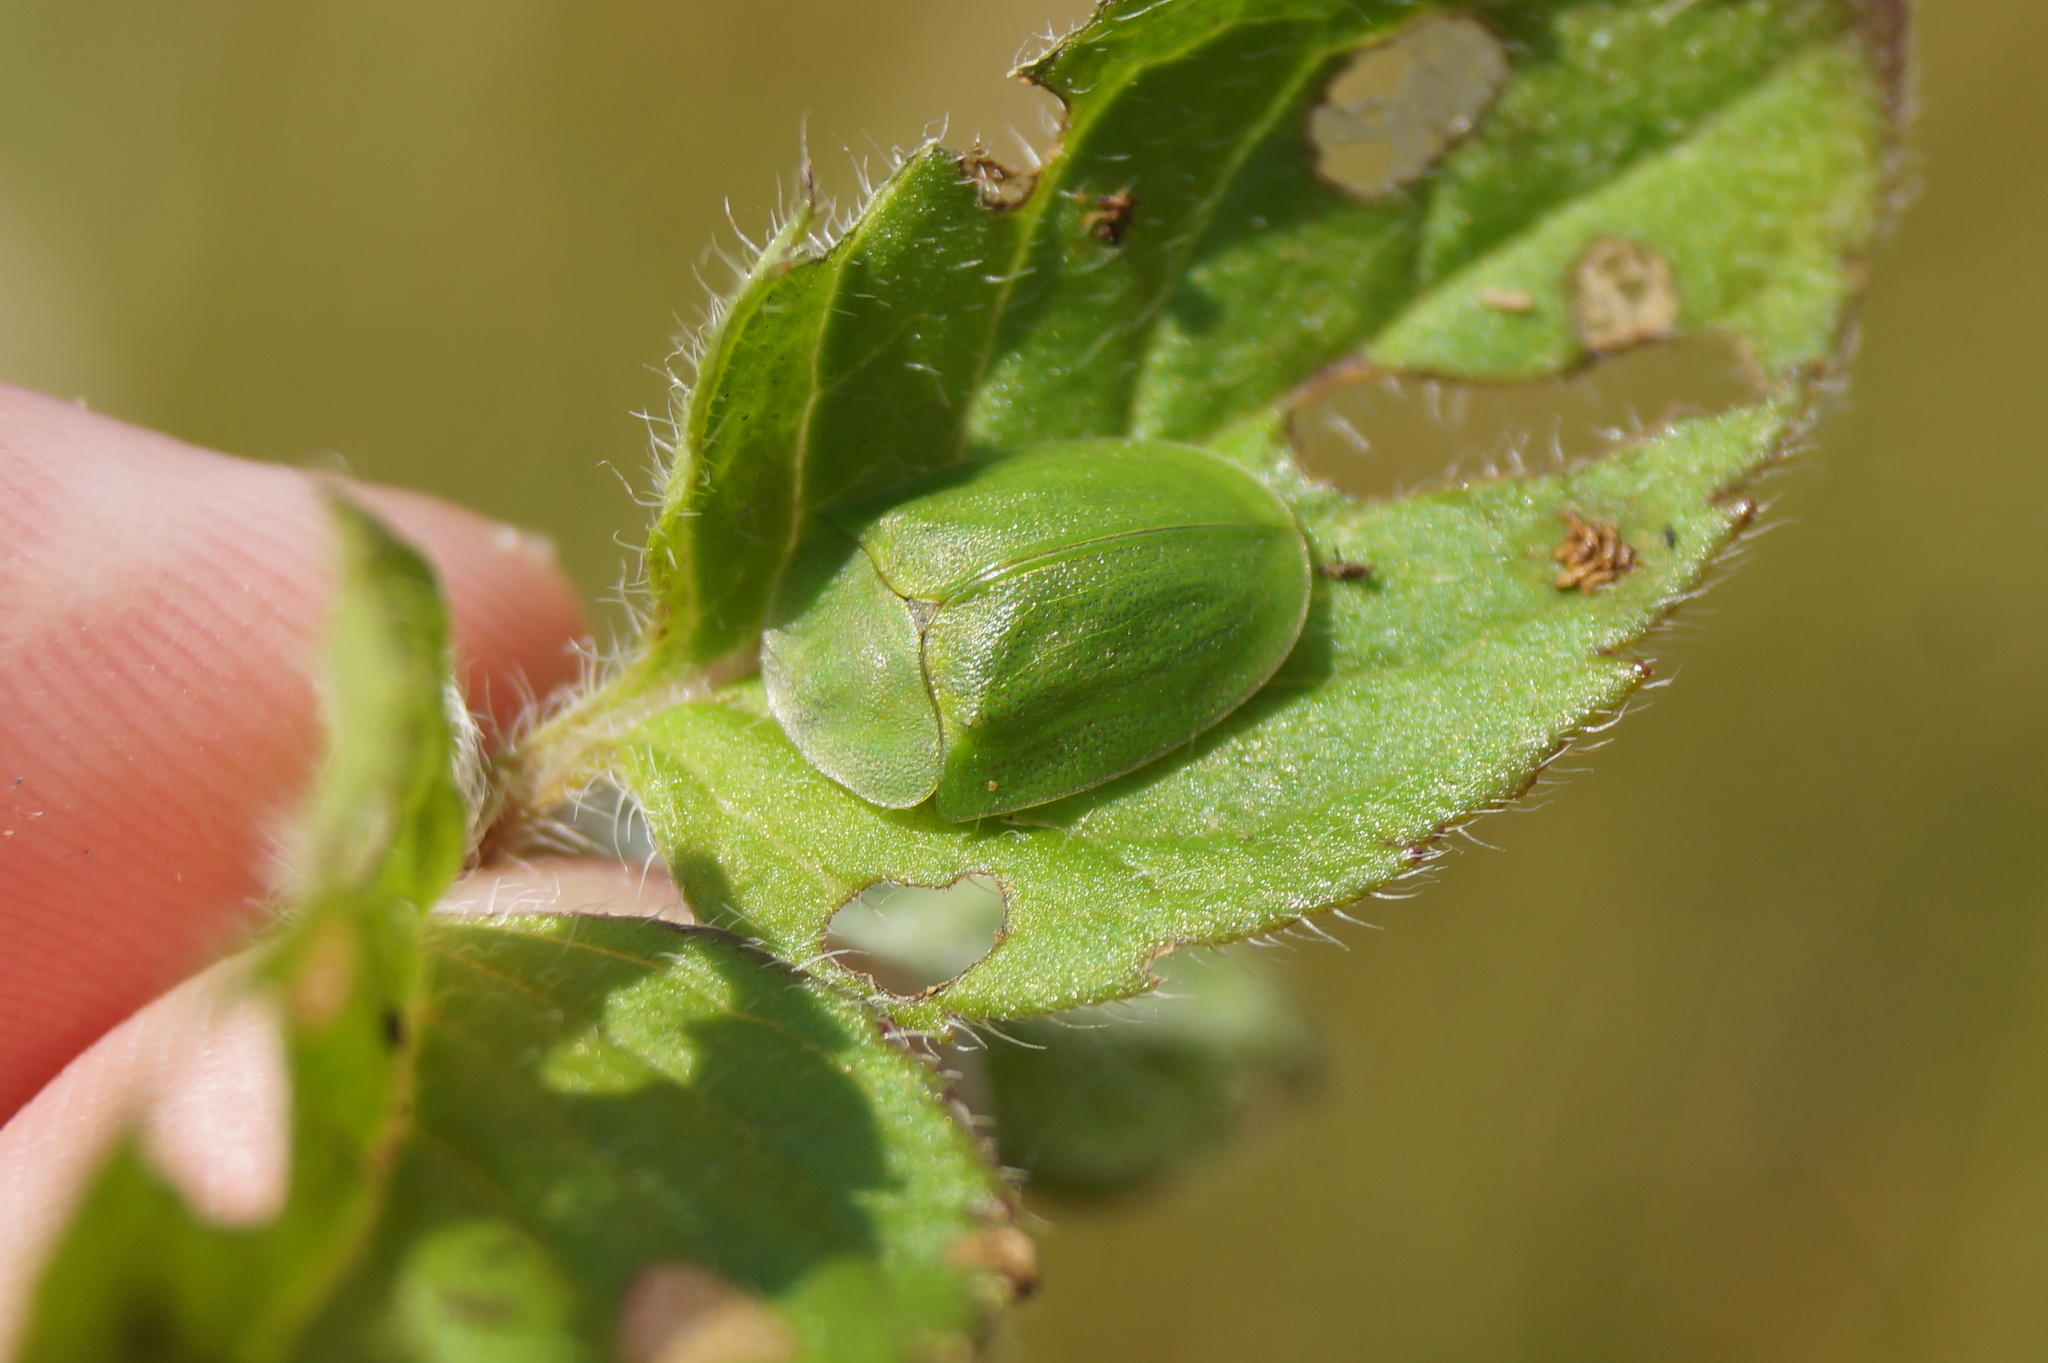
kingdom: Animalia
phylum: Arthropoda
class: Insecta
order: Coleoptera
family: Chrysomelidae
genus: Cassida
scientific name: Cassida viridis
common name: Green tortoise beetle
